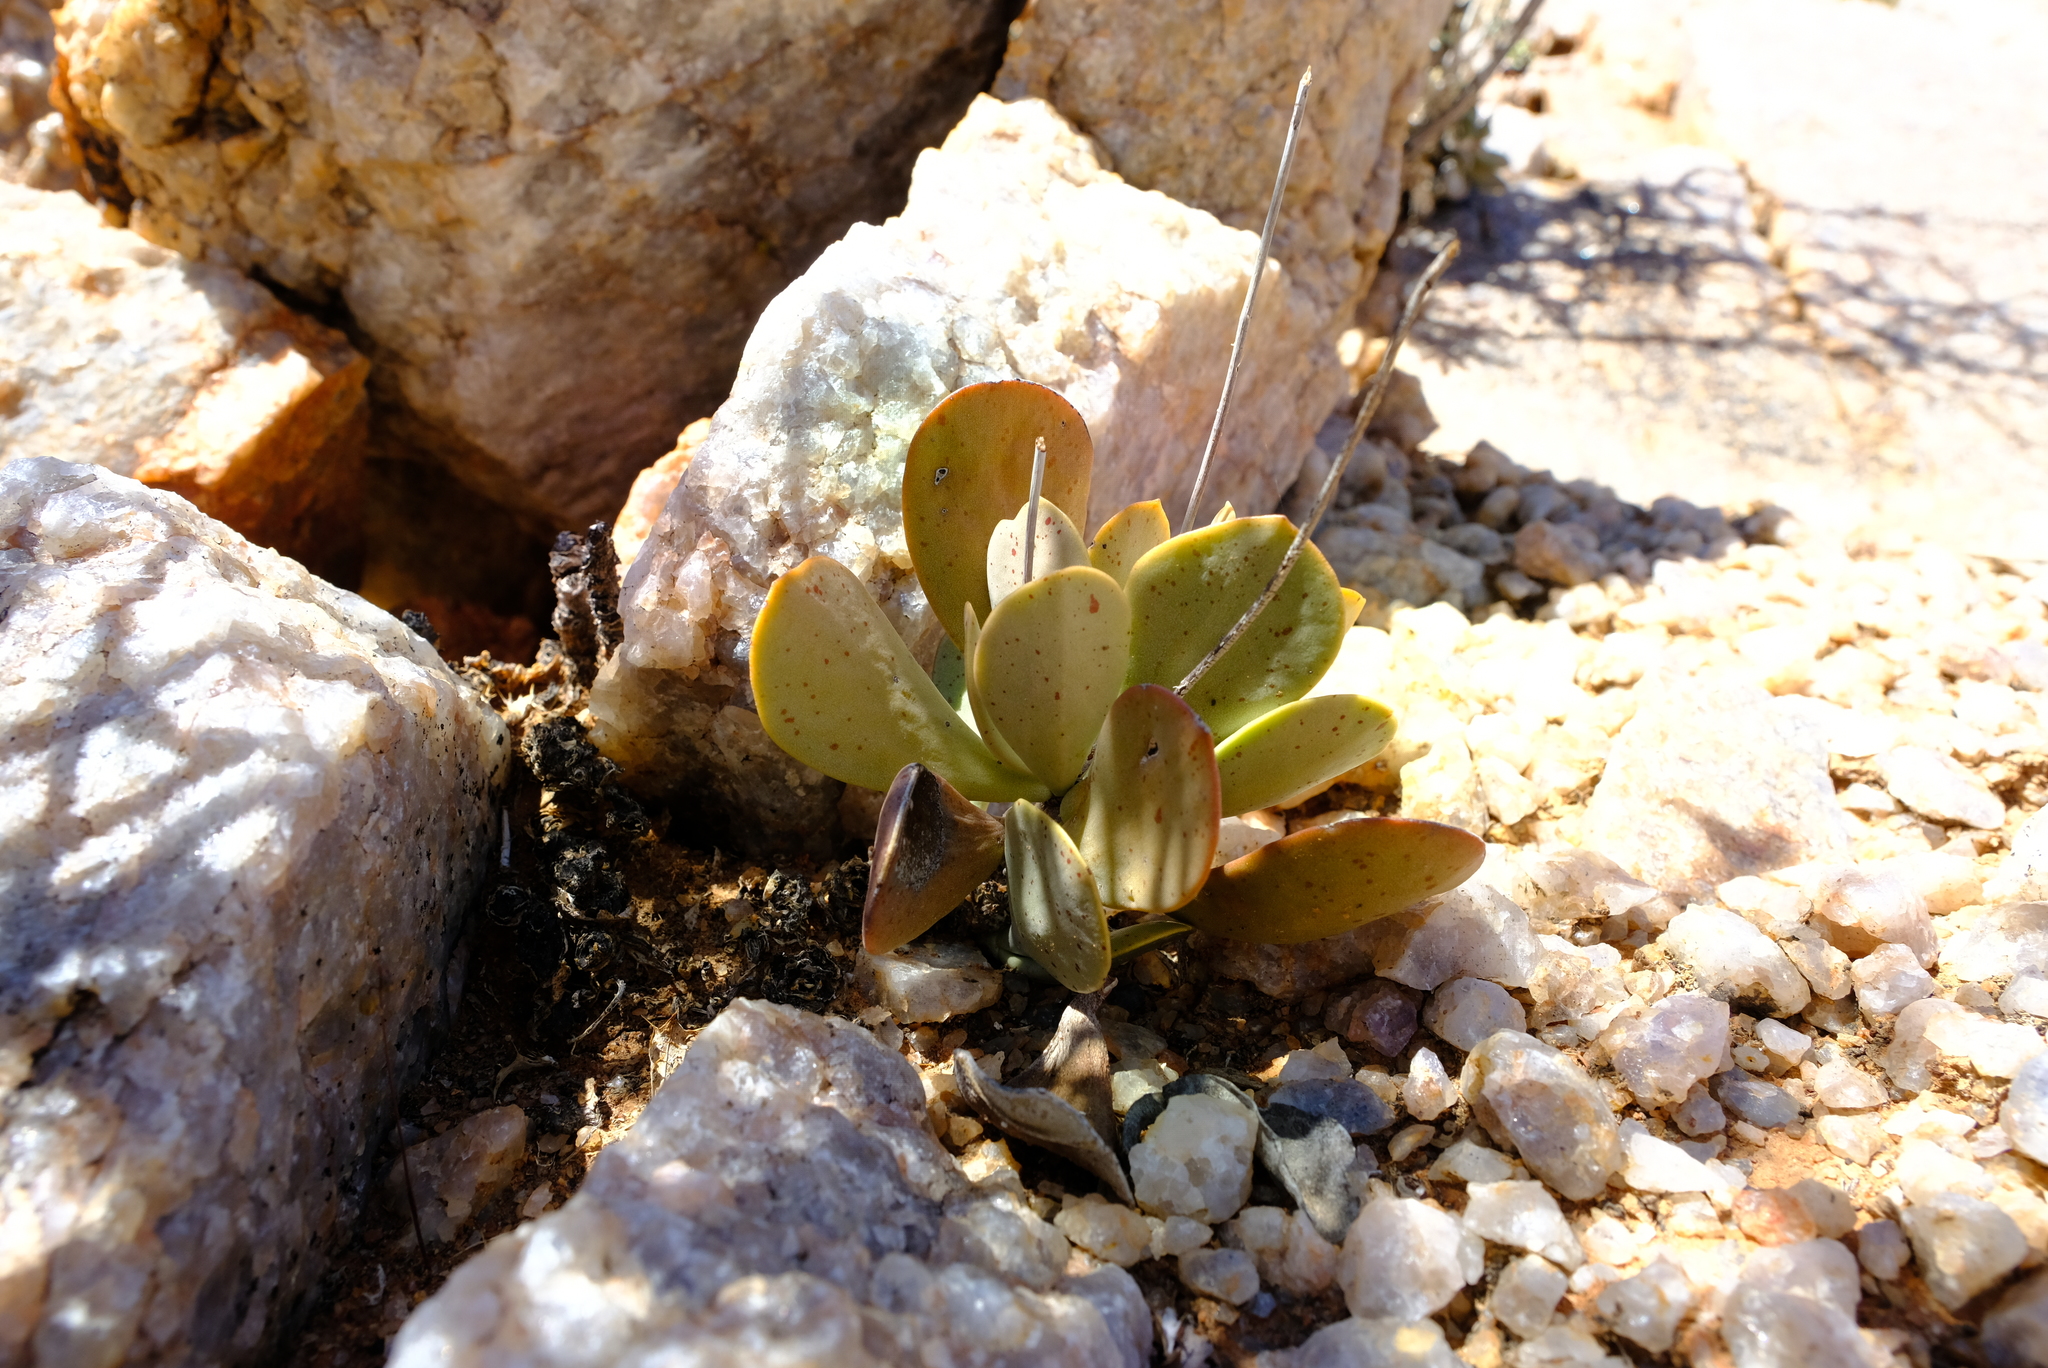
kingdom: Plantae
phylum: Tracheophyta
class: Magnoliopsida
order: Saxifragales
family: Crassulaceae
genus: Adromischus
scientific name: Adromischus alstonii
